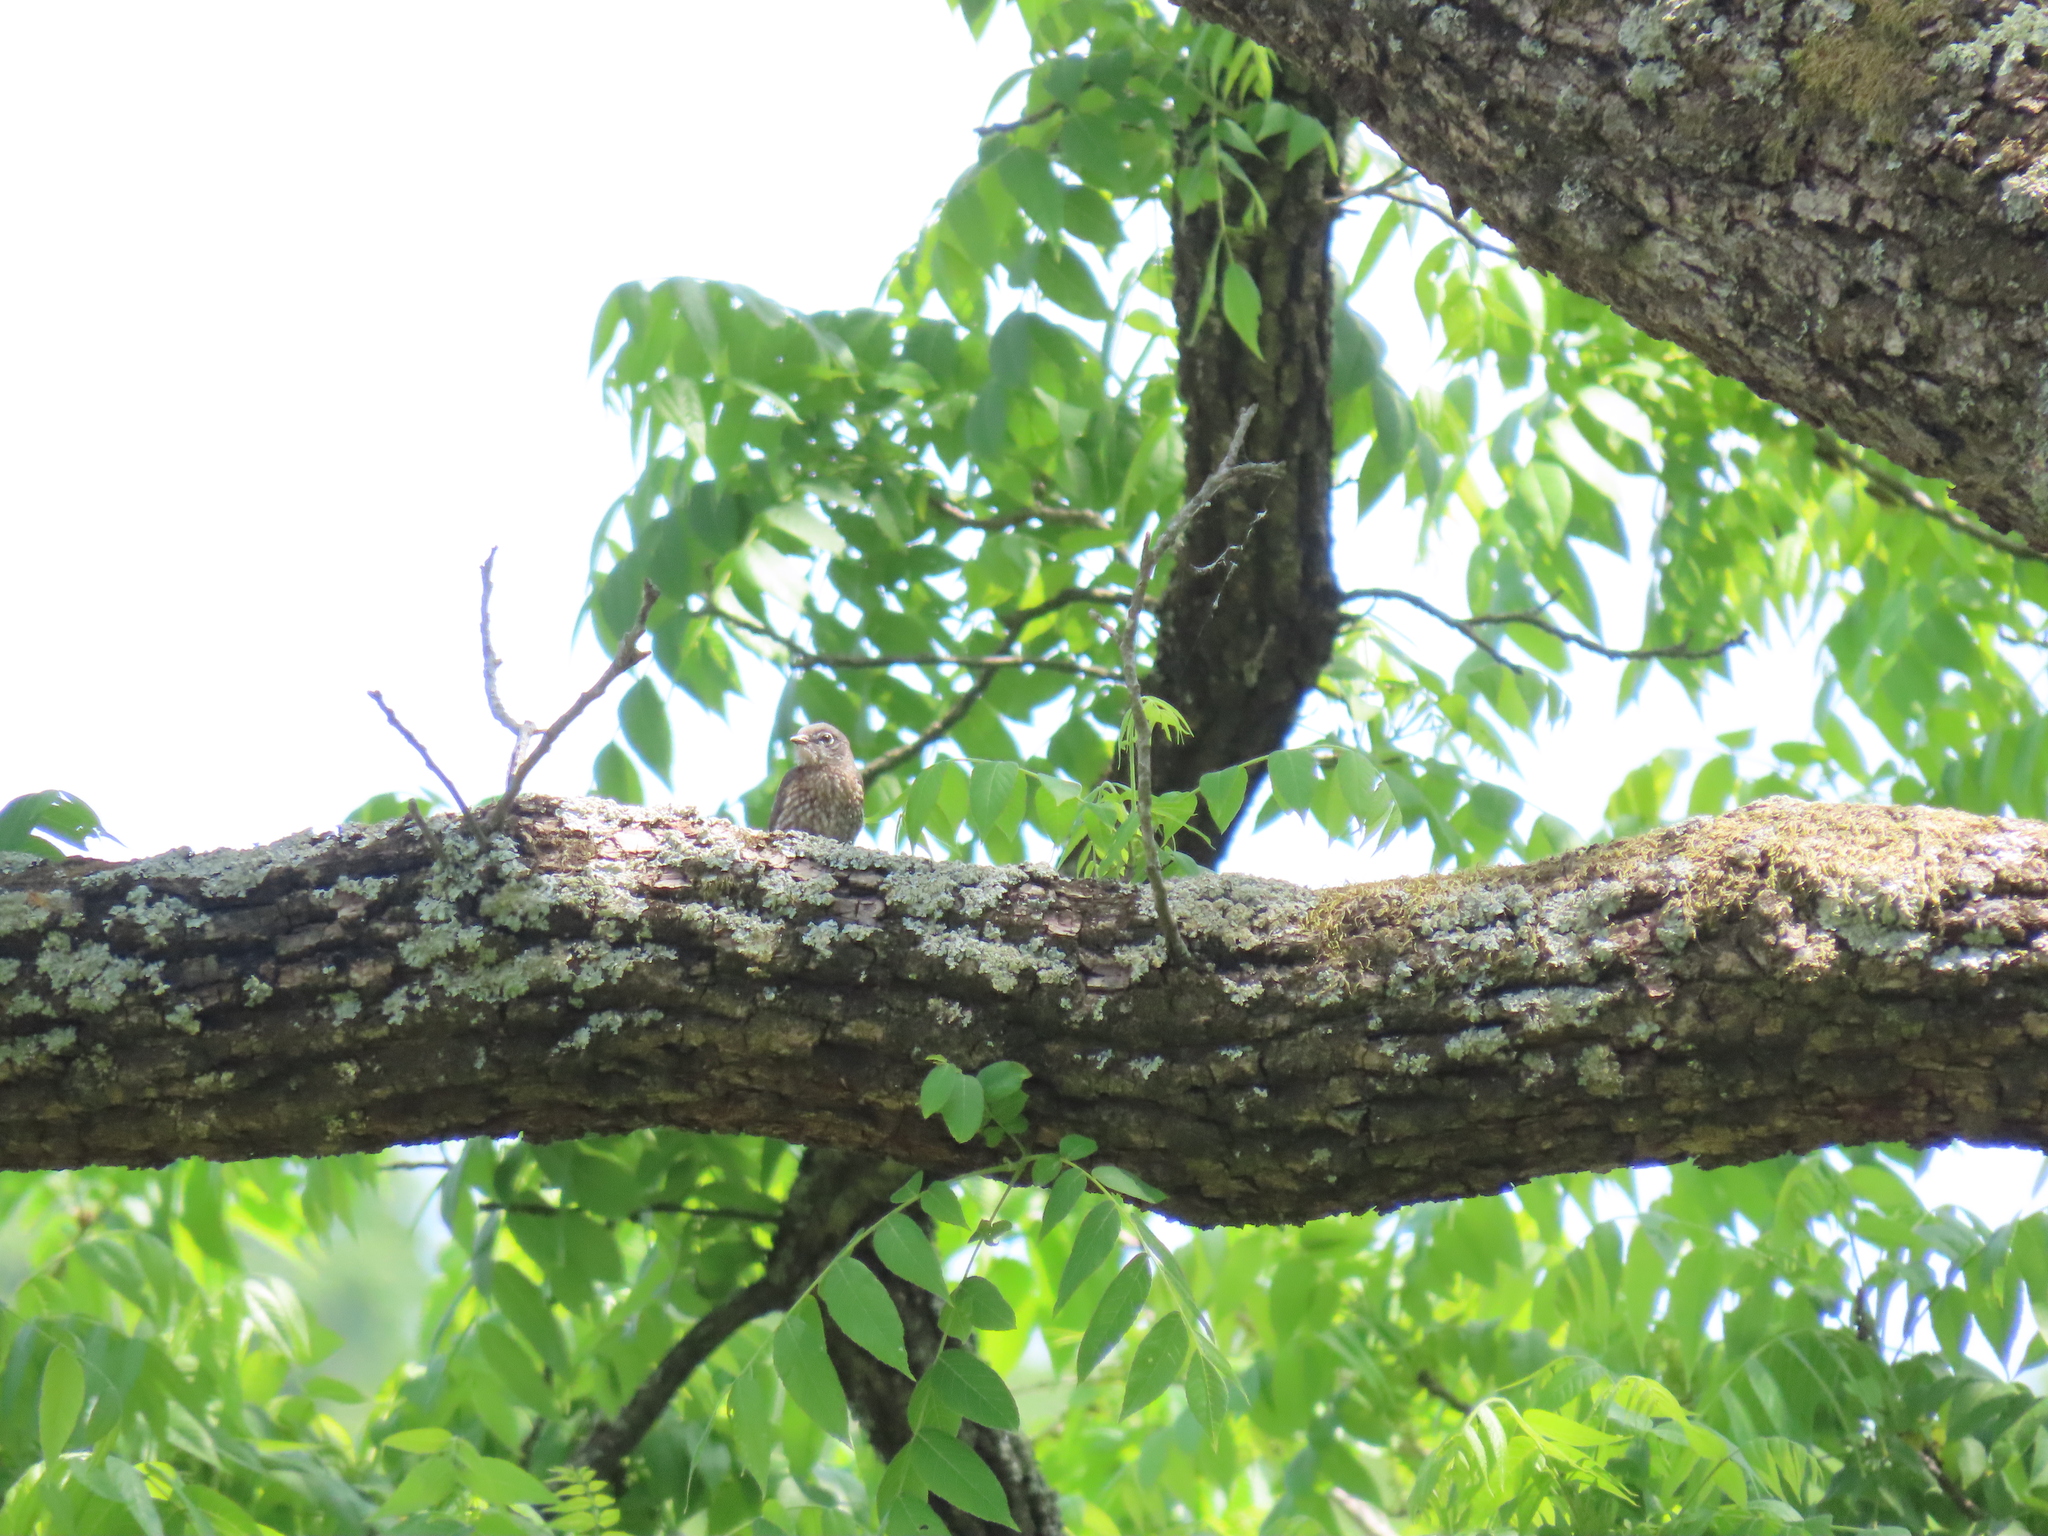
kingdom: Animalia
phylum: Chordata
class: Aves
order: Passeriformes
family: Turdidae
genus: Sialia
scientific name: Sialia sialis
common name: Eastern bluebird
